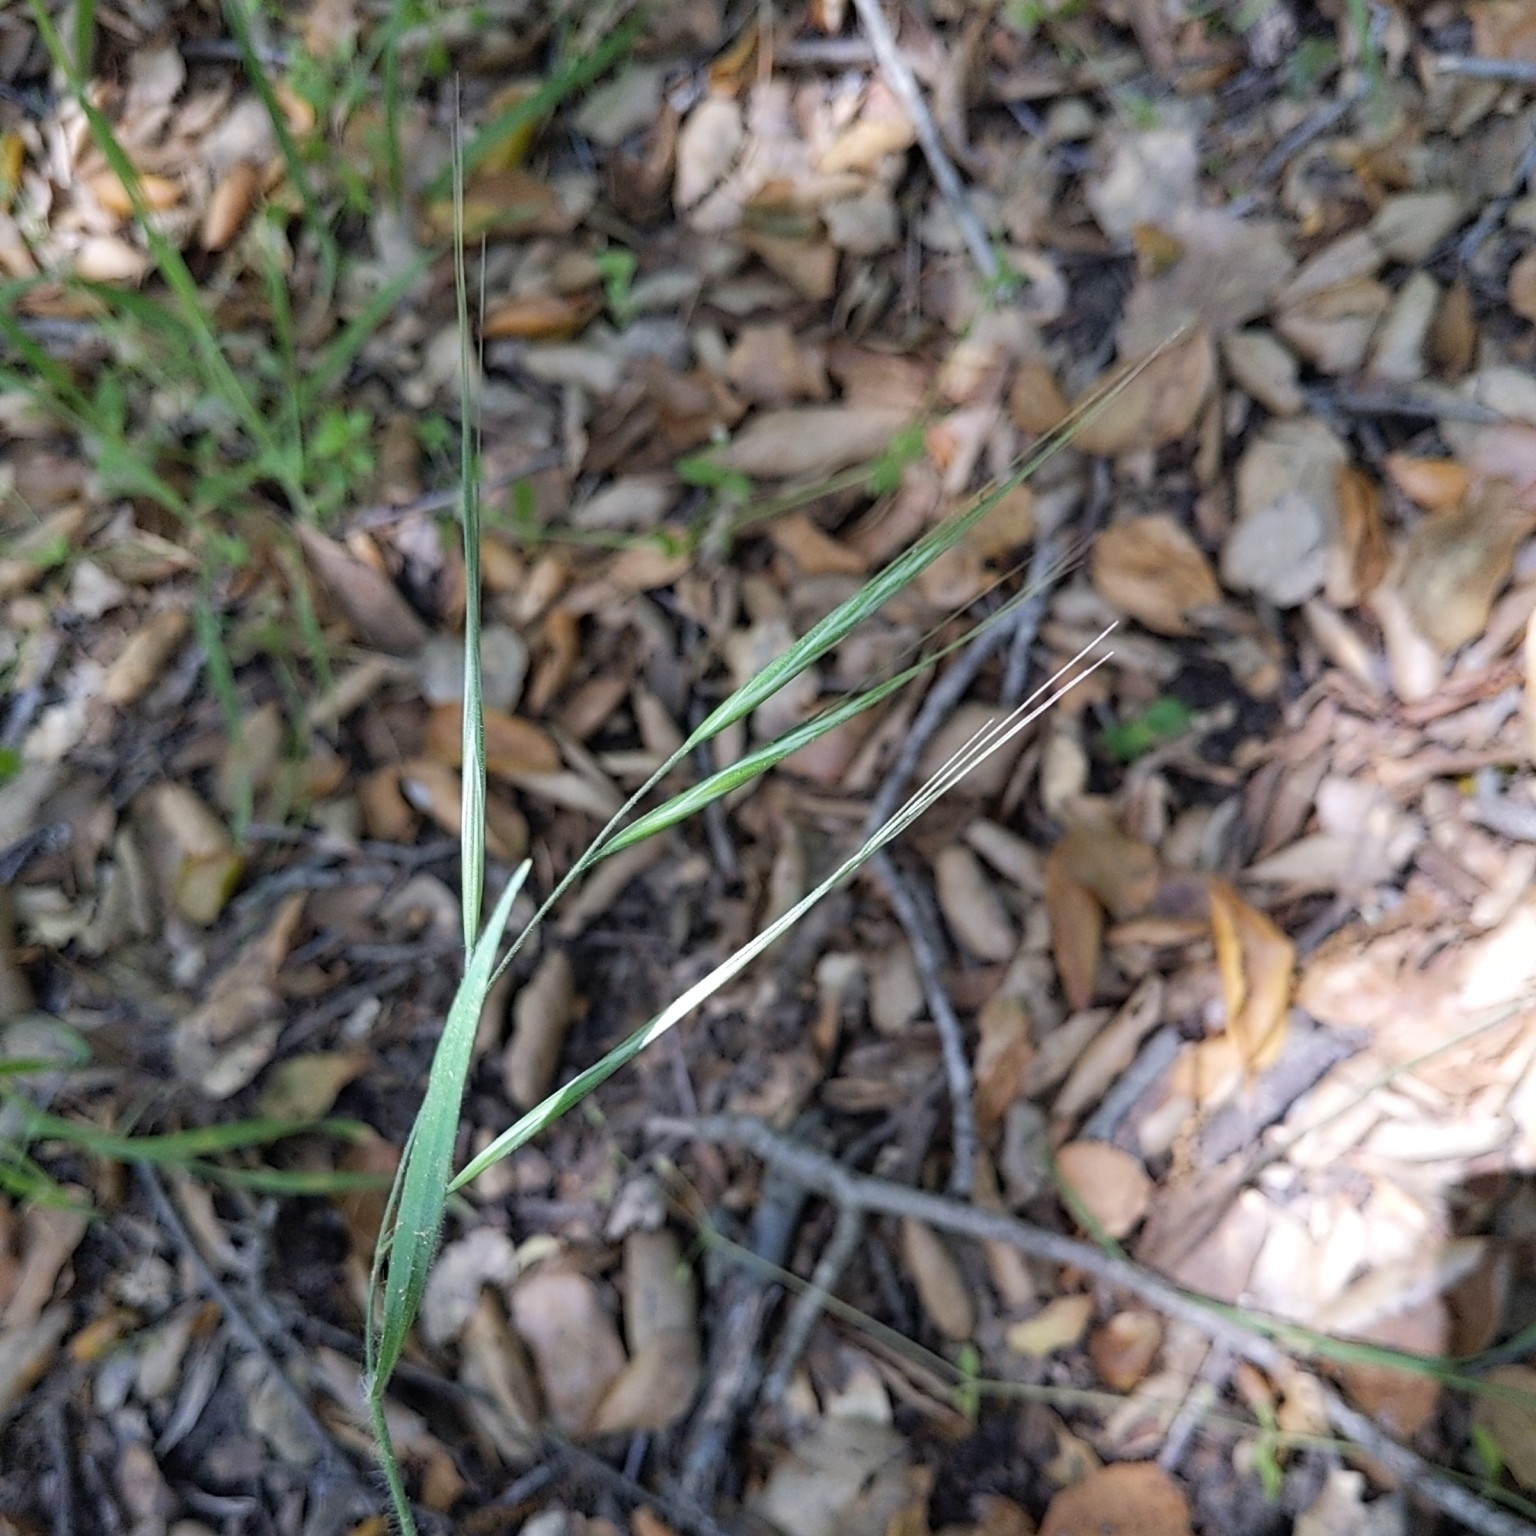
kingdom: Plantae
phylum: Tracheophyta
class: Liliopsida
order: Poales
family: Poaceae
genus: Bromus
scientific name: Bromus diandrus
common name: Ripgut brome
